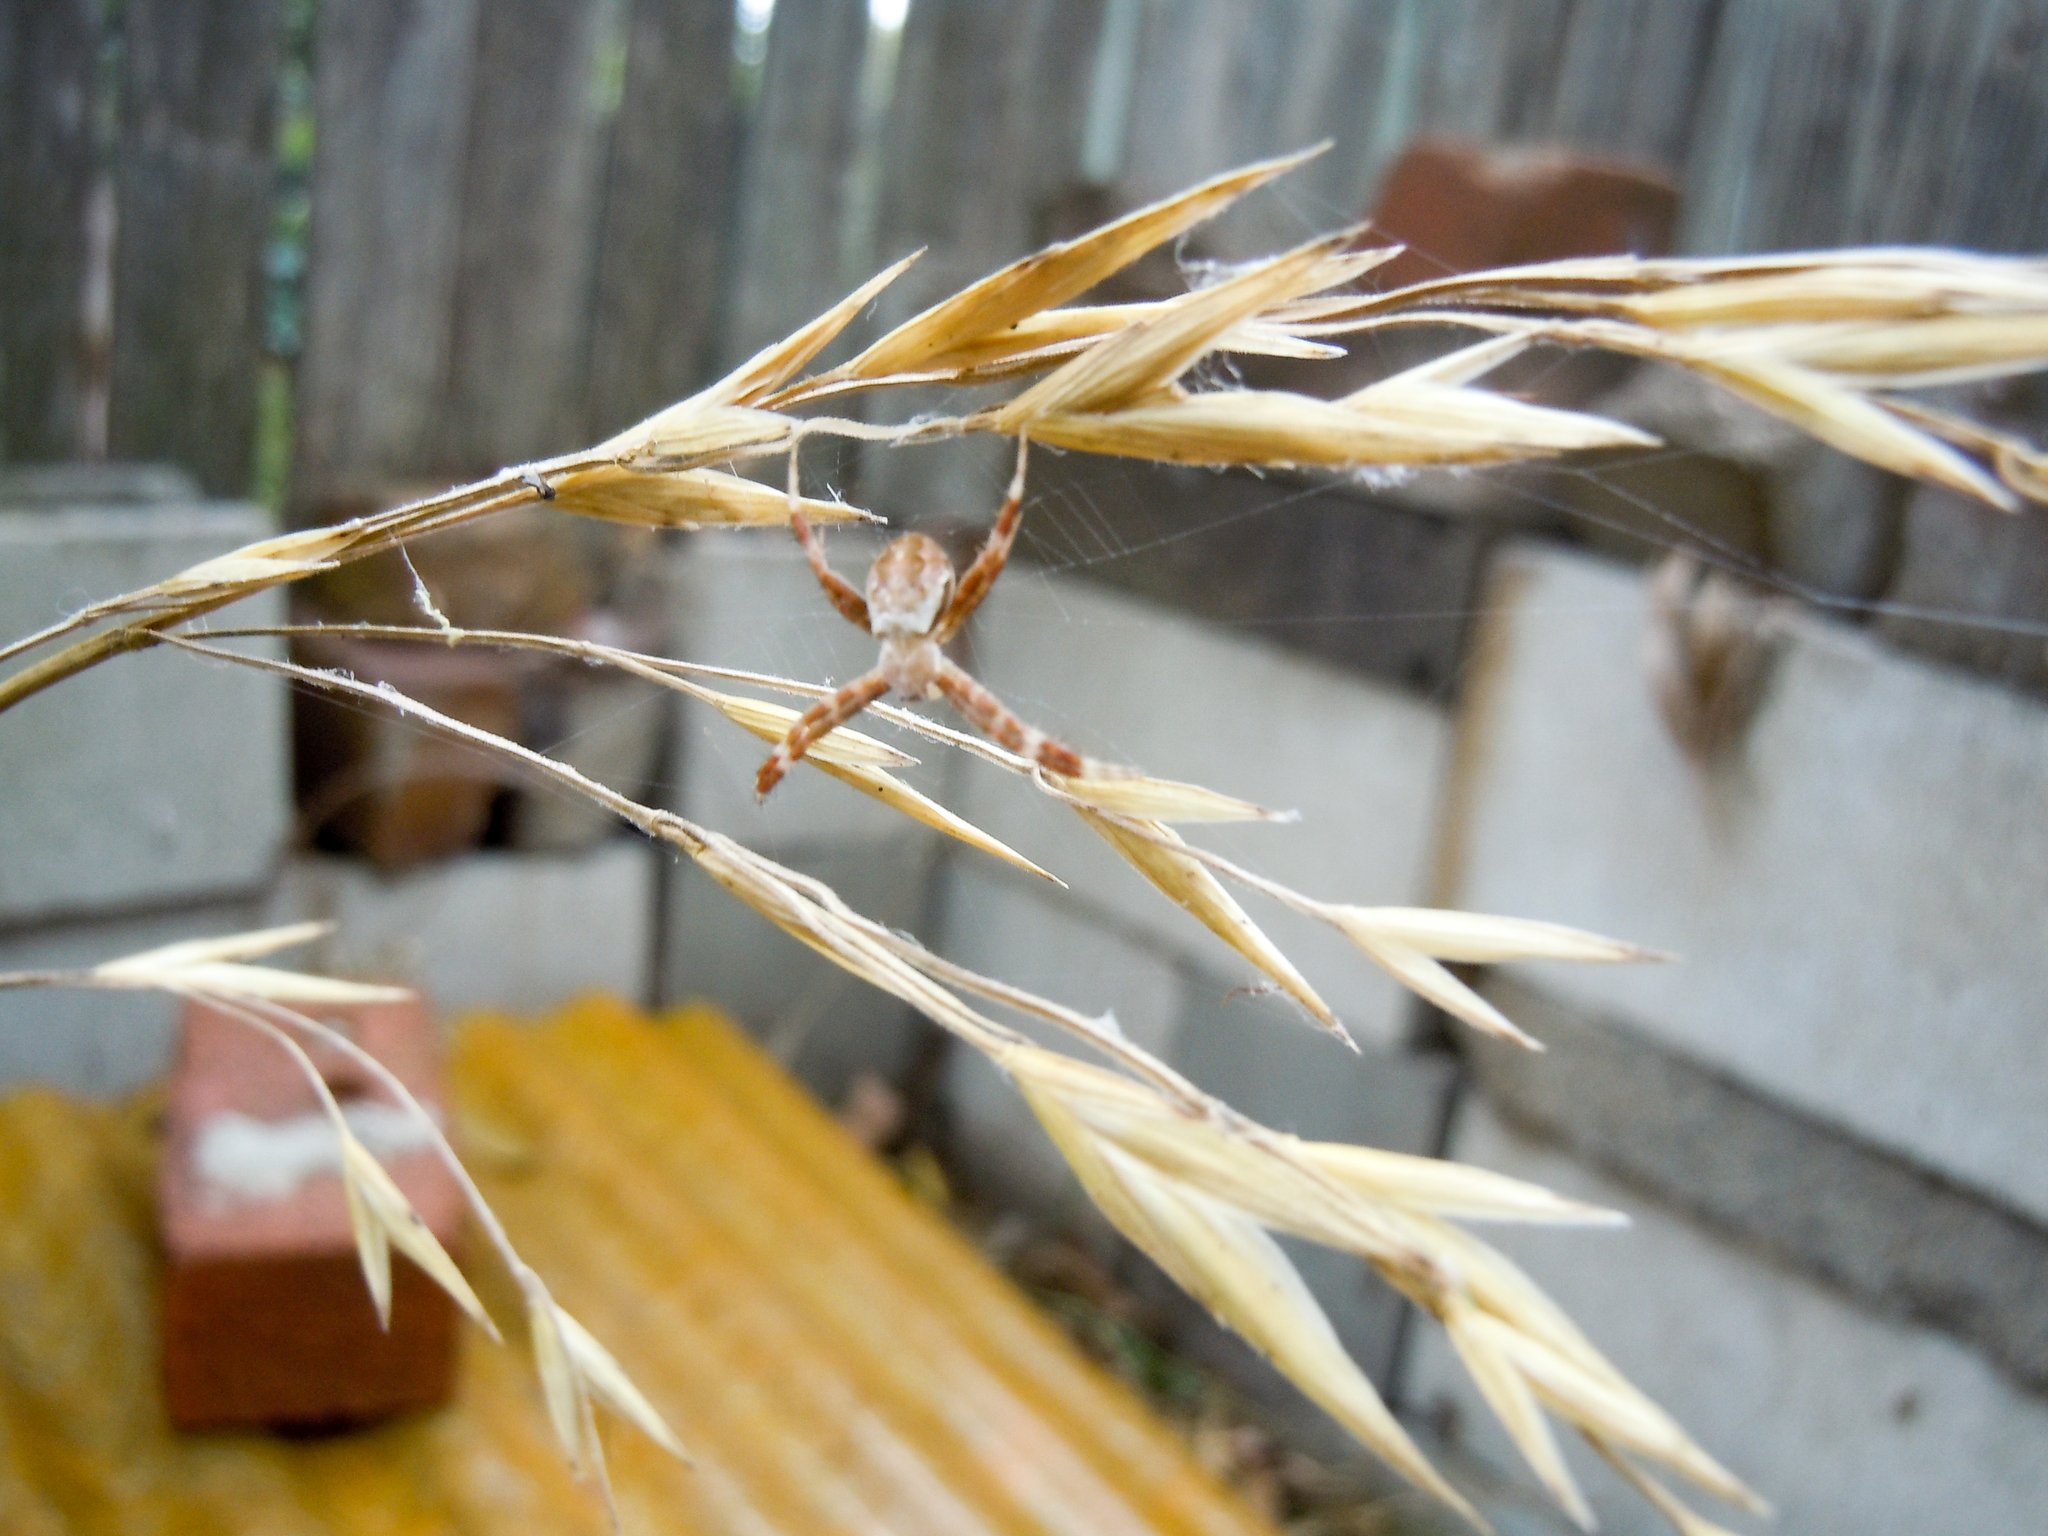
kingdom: Animalia
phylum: Arthropoda
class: Arachnida
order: Araneae
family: Araneidae
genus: Argiope
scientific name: Argiope keyserlingi
